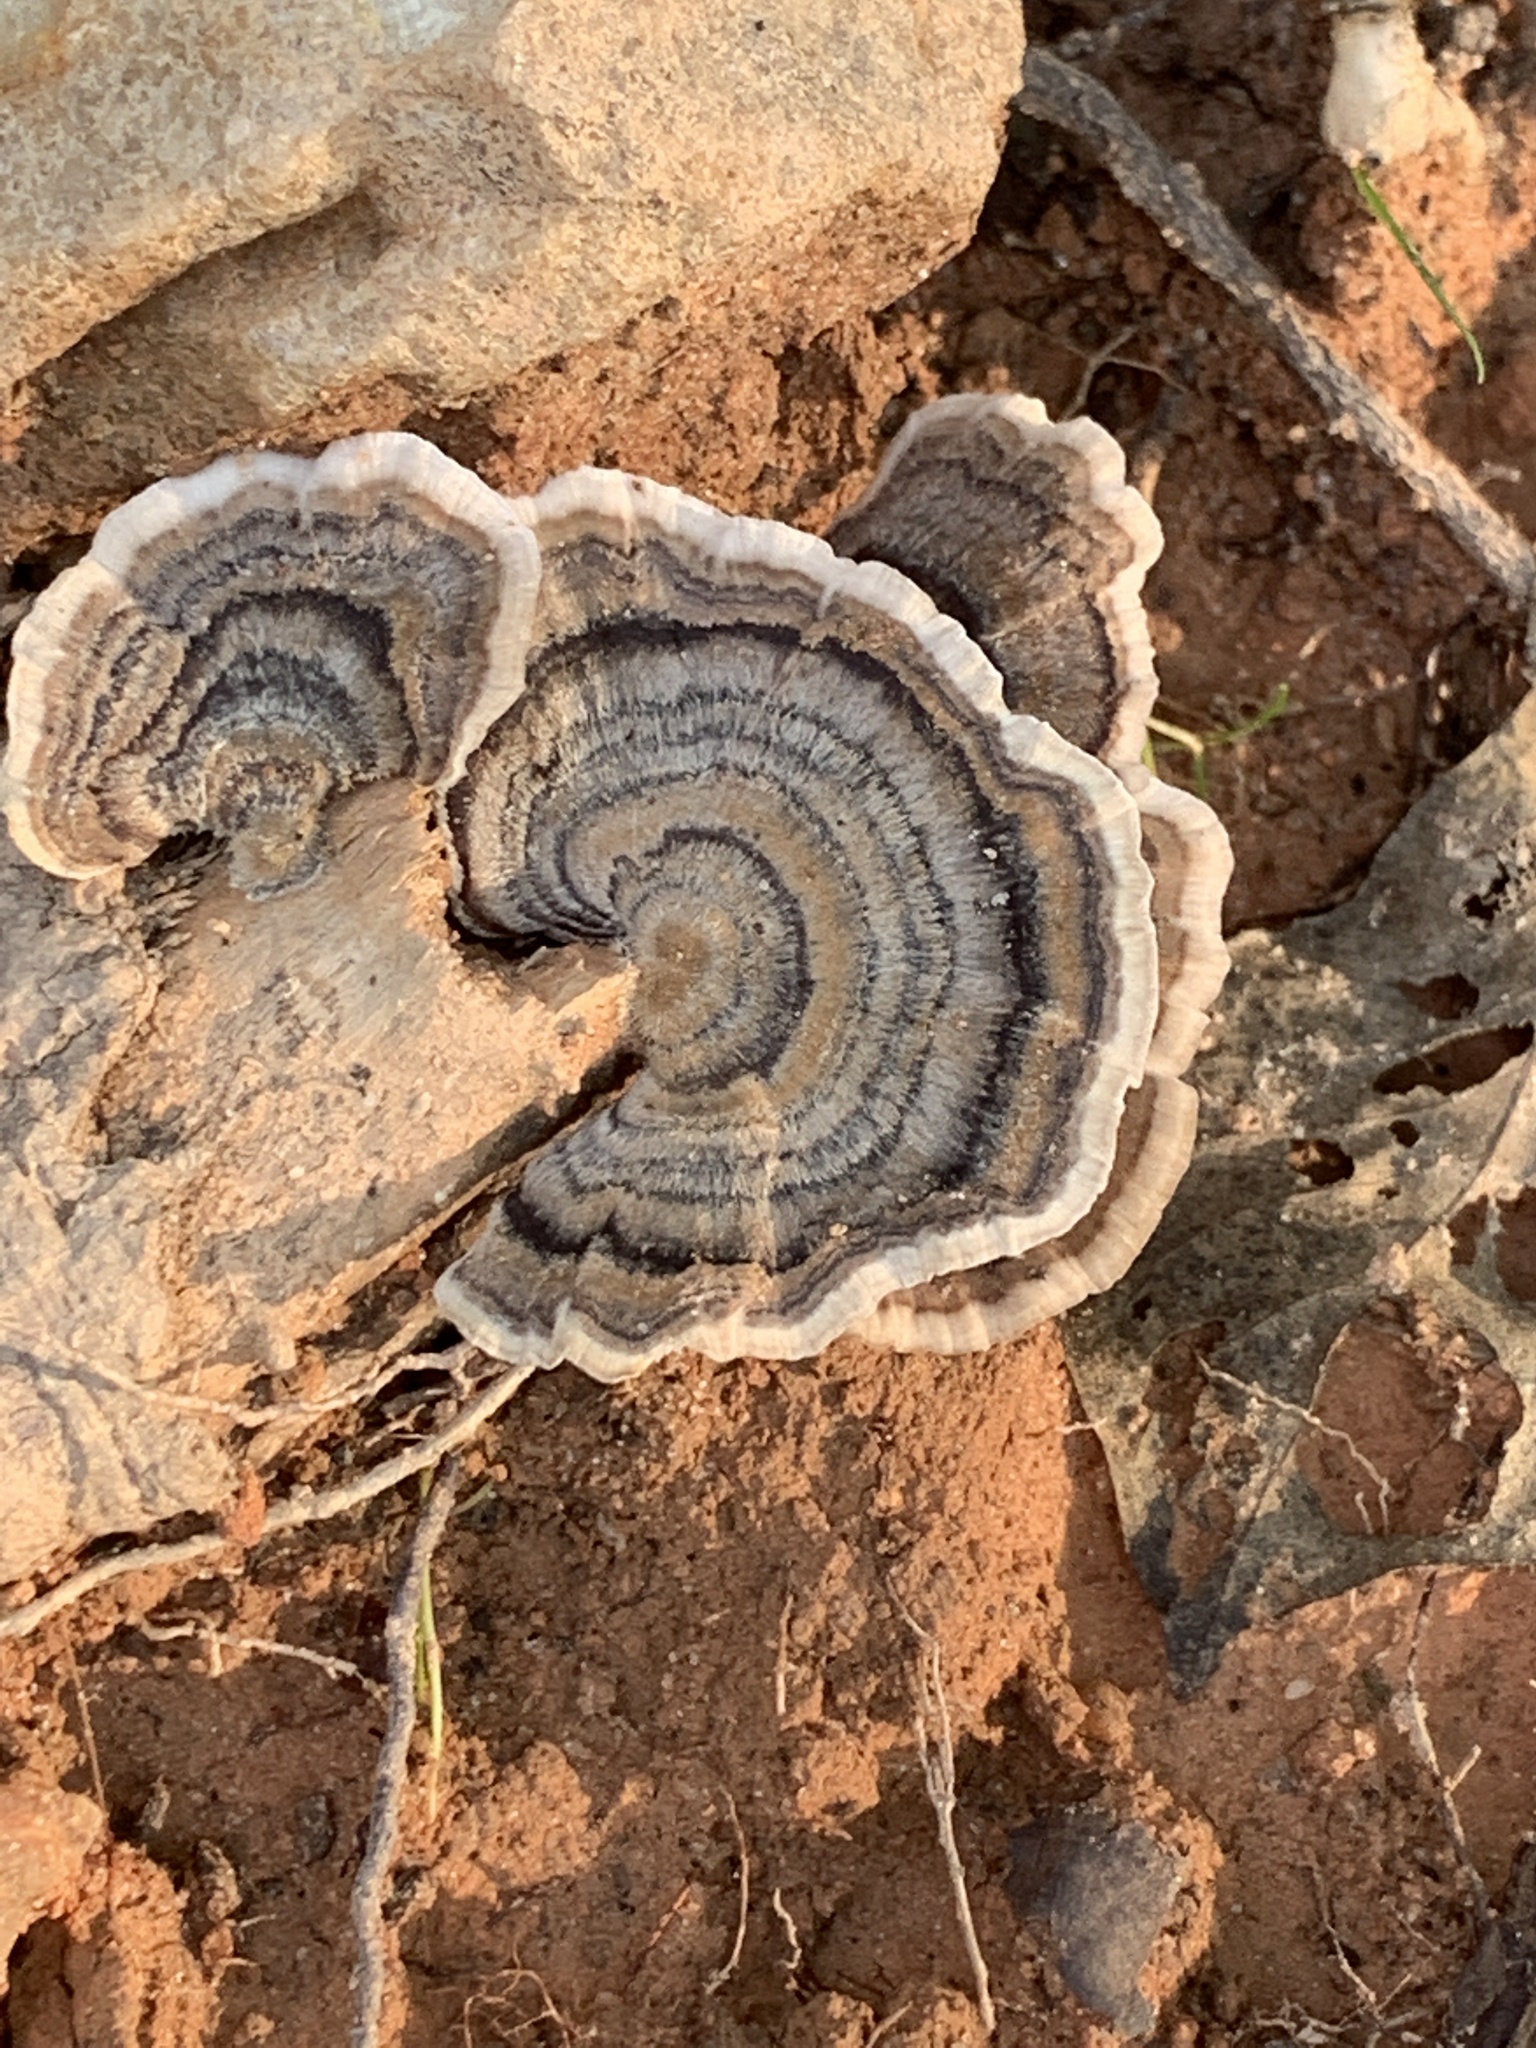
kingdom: Fungi
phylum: Basidiomycota
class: Agaricomycetes
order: Polyporales
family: Polyporaceae
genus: Trametes
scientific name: Trametes versicolor
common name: Turkeytail
